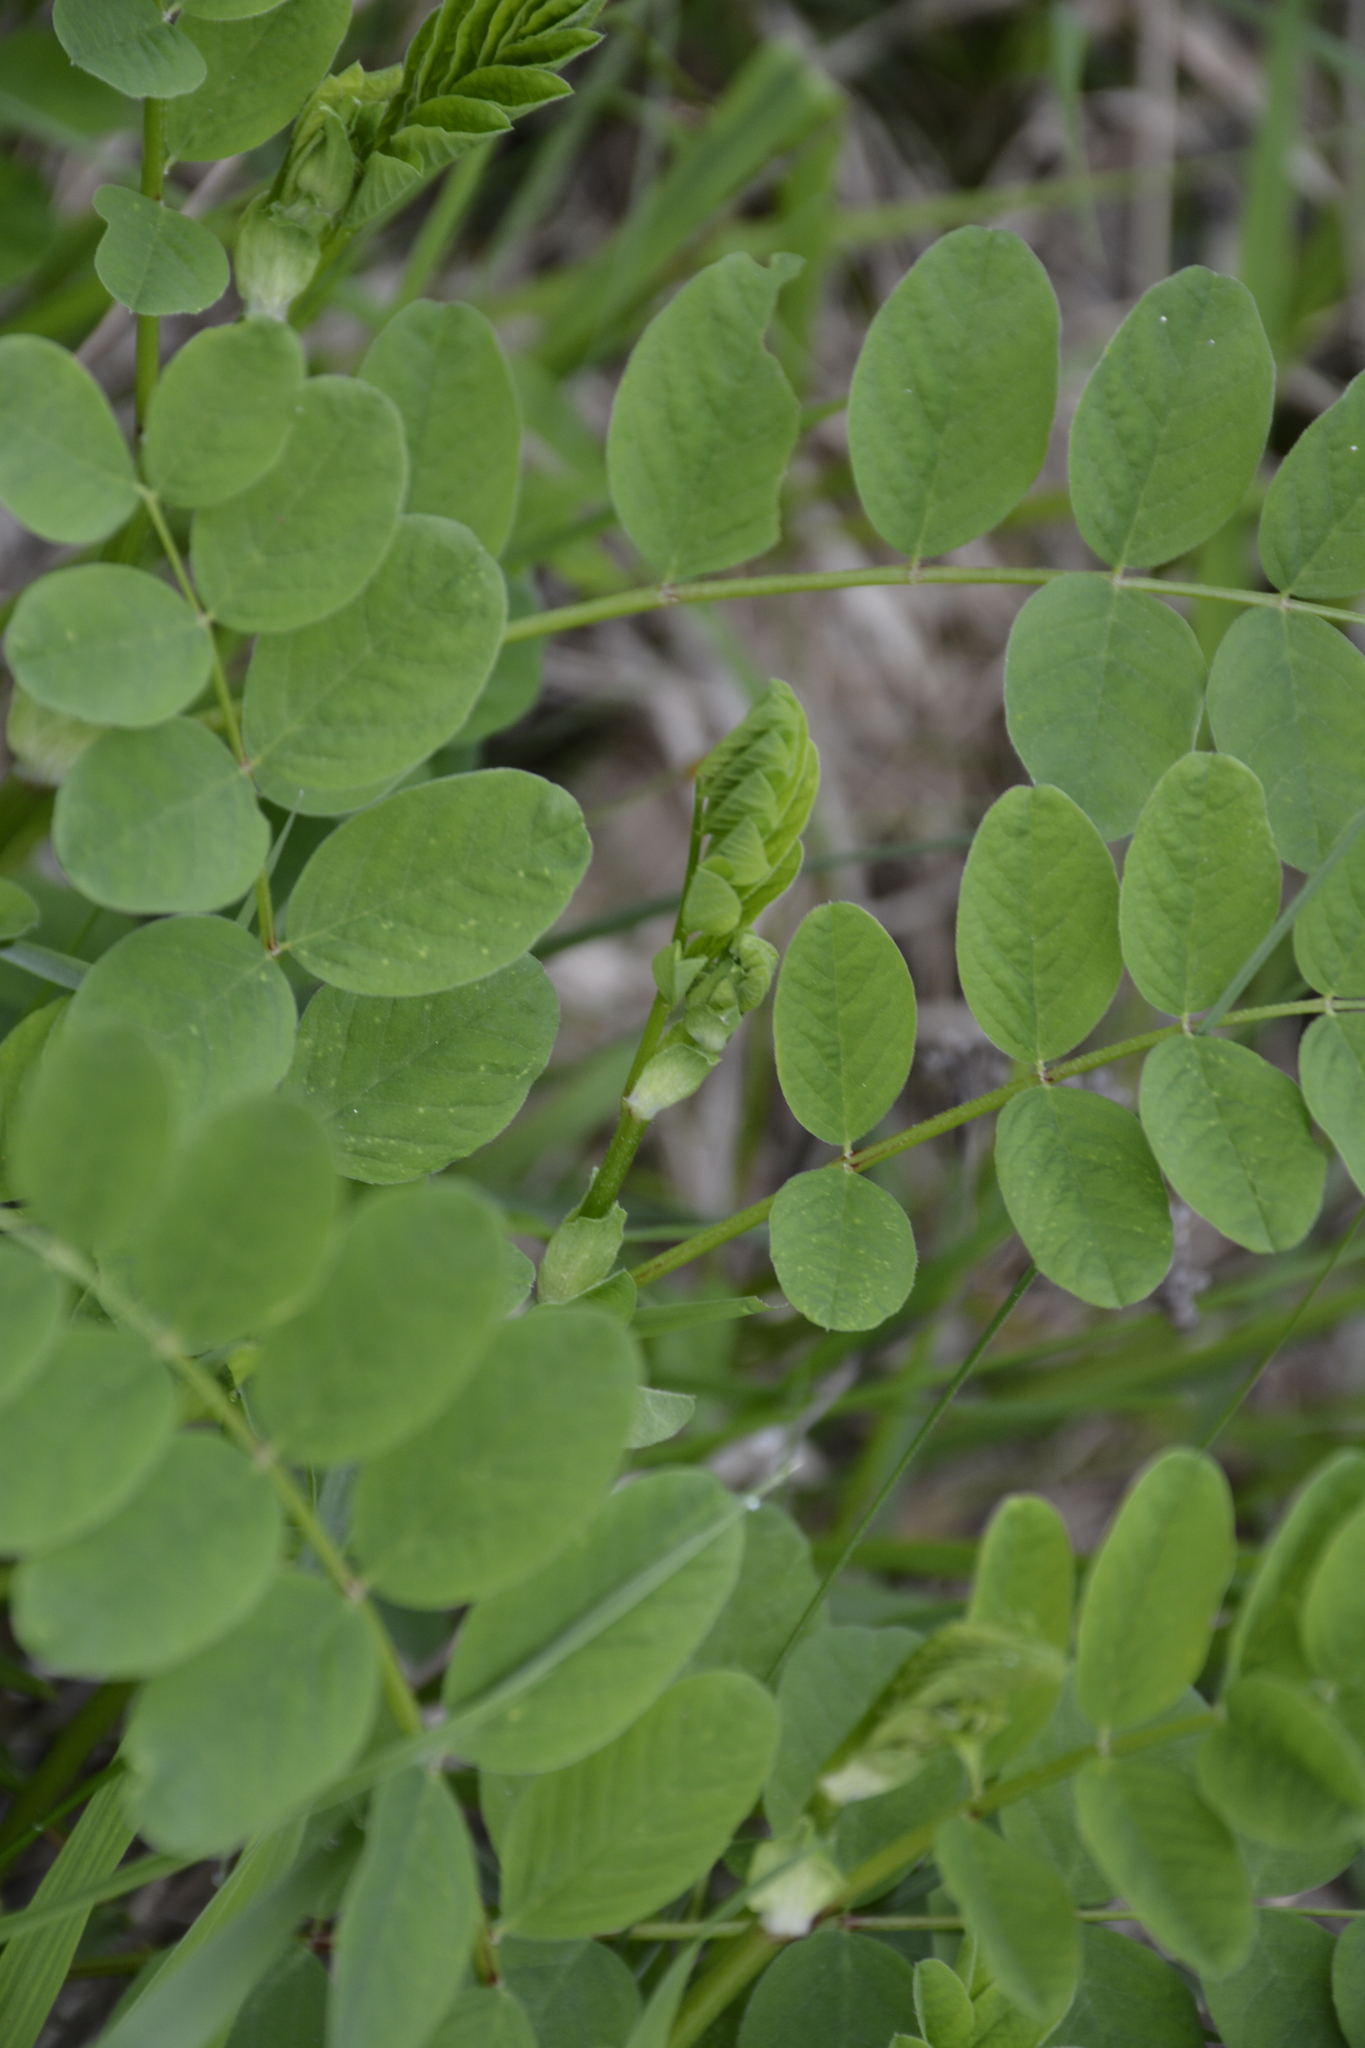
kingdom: Plantae
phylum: Tracheophyta
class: Magnoliopsida
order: Fabales
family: Fabaceae
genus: Astragalus
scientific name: Astragalus glycyphyllos
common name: Wild liquorice
